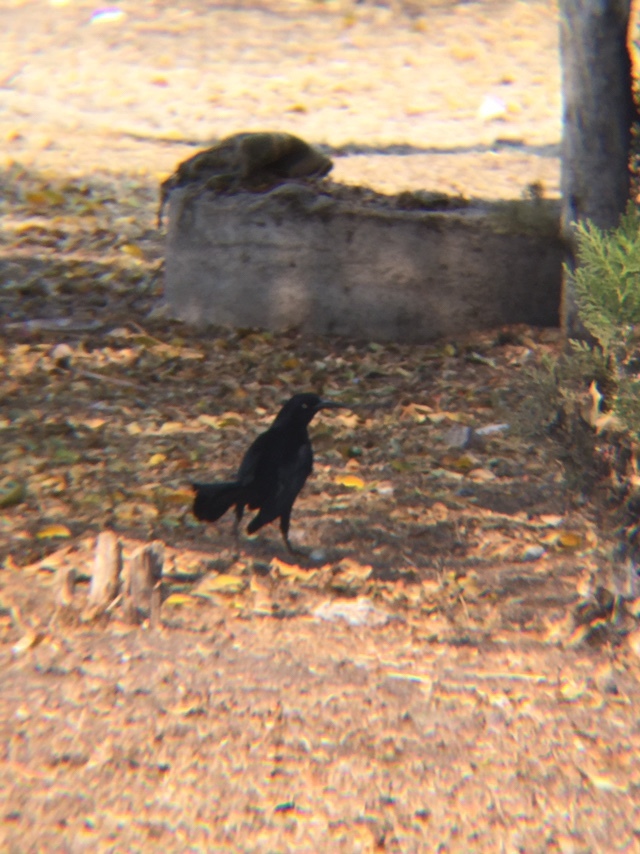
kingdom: Animalia
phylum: Chordata
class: Aves
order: Passeriformes
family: Icteridae
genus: Quiscalus
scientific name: Quiscalus mexicanus
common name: Great-tailed grackle
